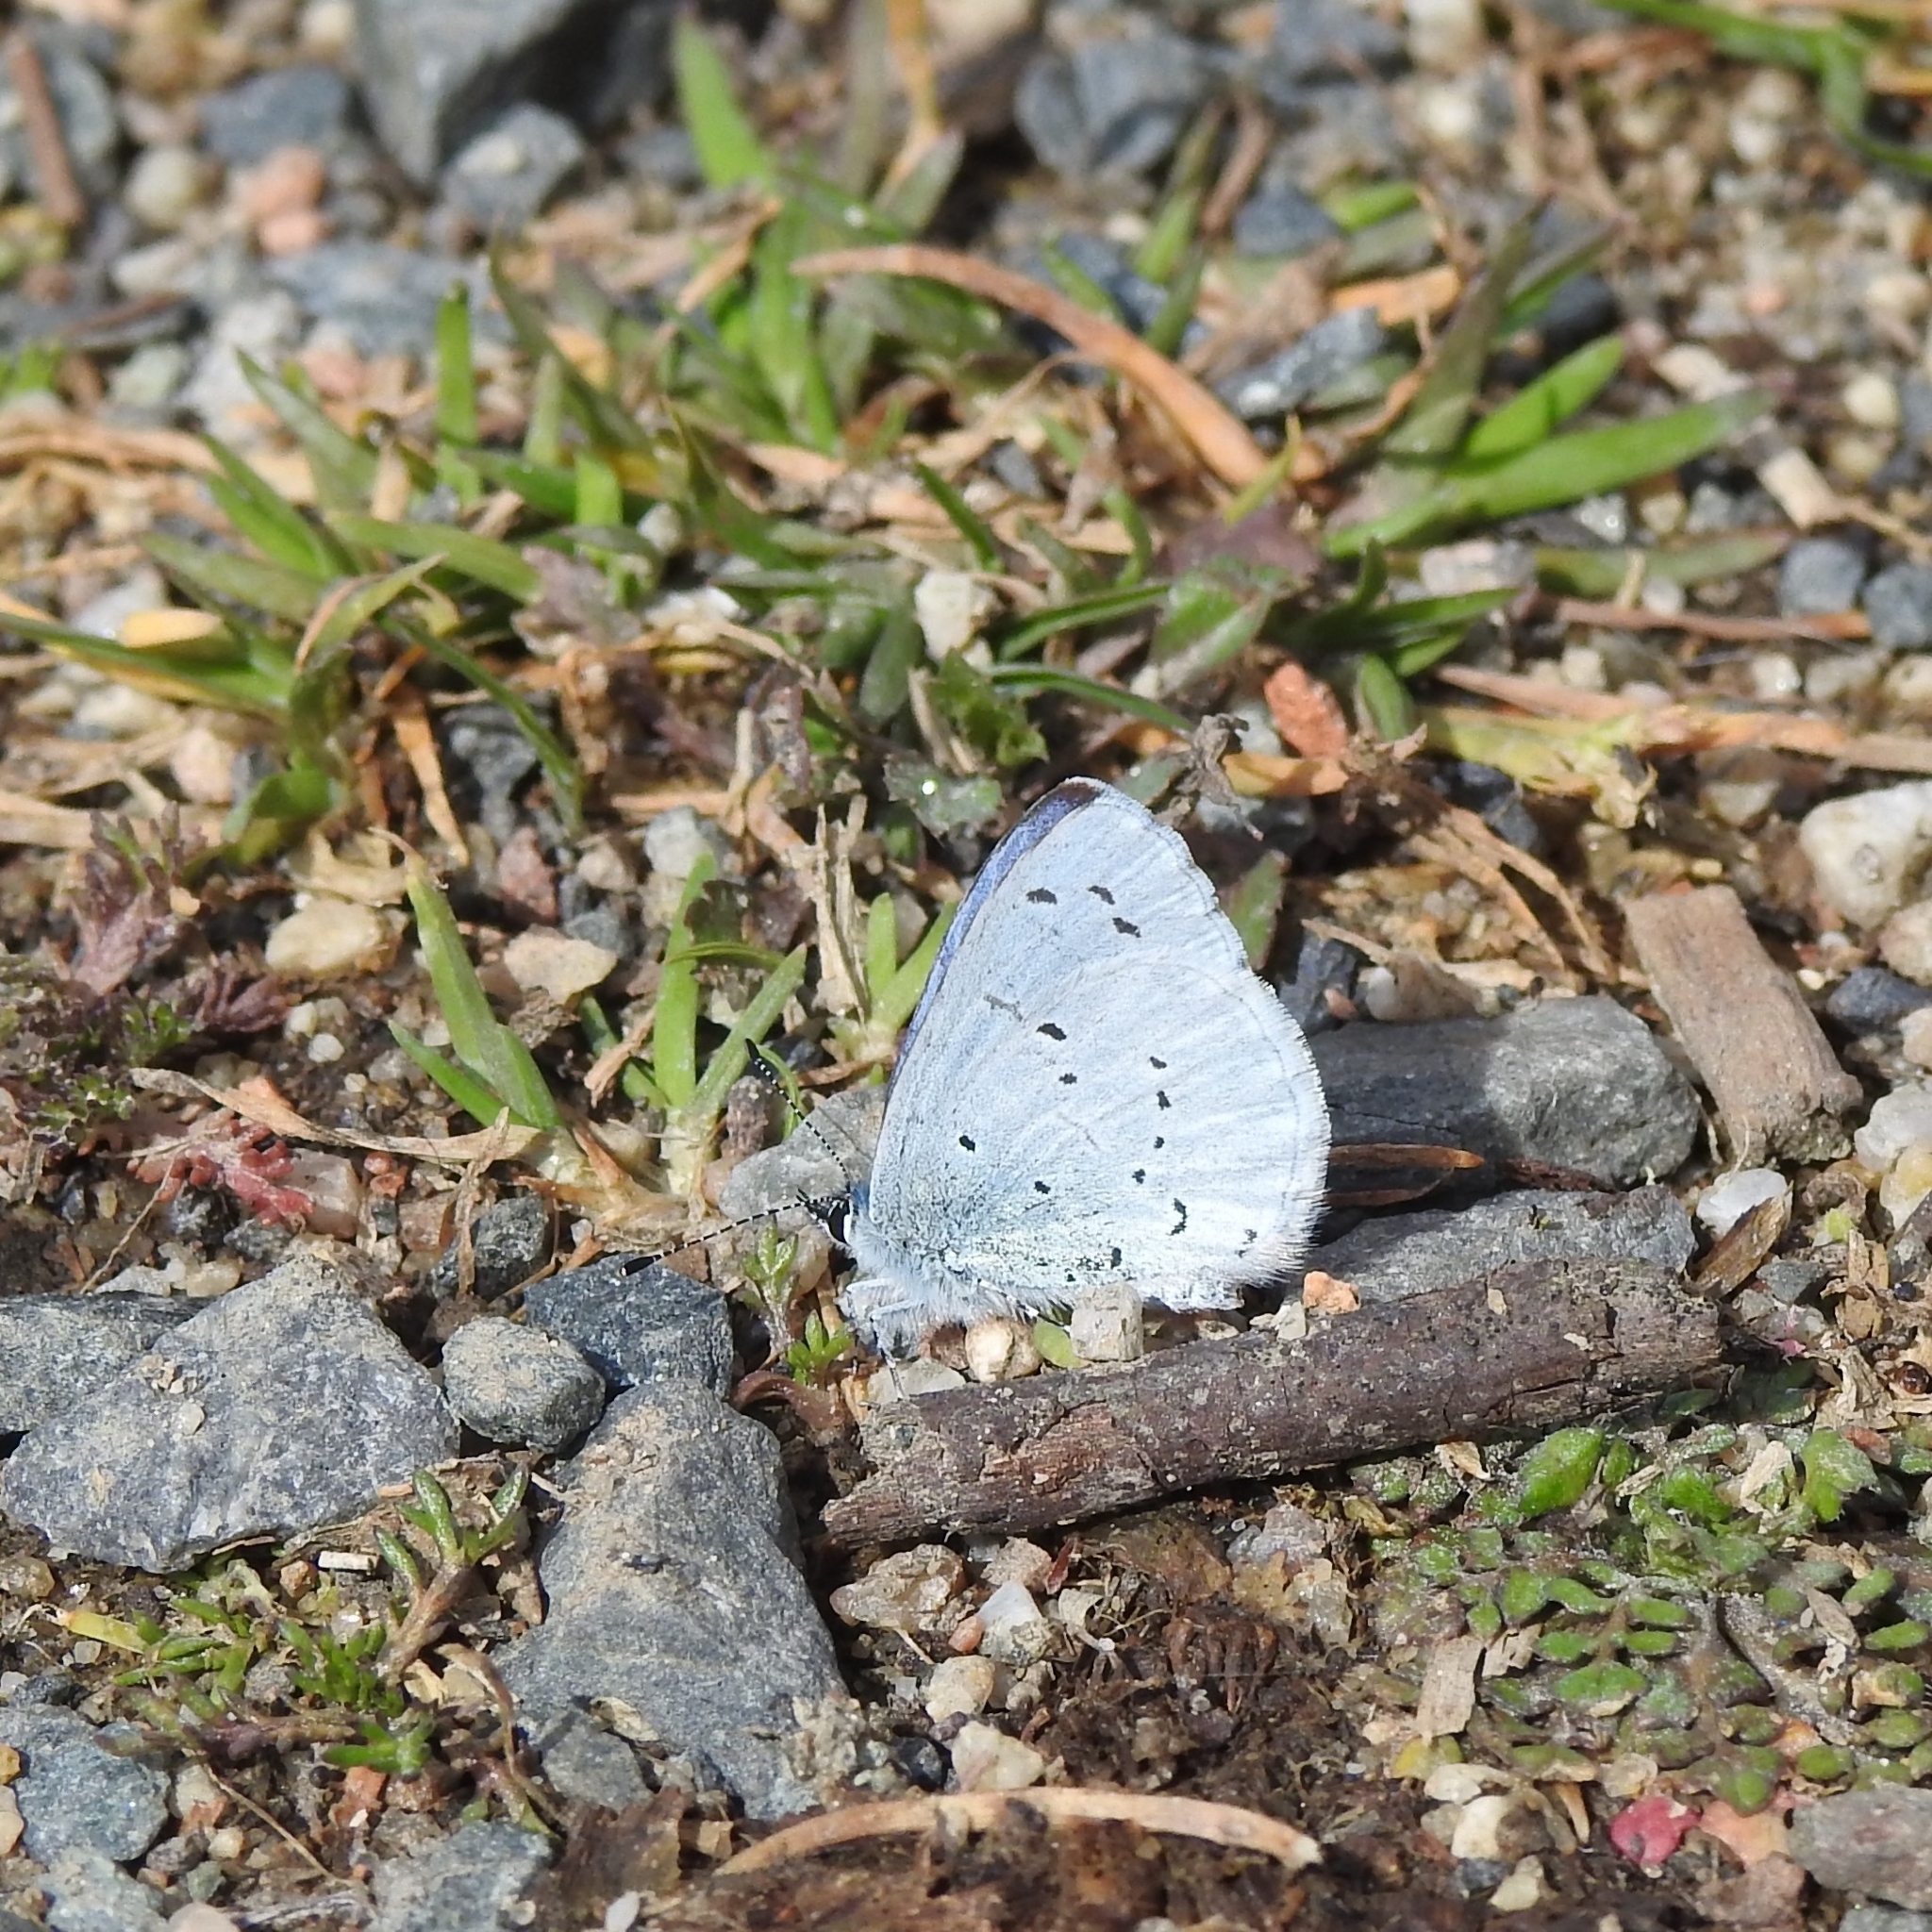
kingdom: Animalia
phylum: Arthropoda
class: Insecta
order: Lepidoptera
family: Lycaenidae
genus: Celastrina
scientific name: Celastrina argiolus
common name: Holly blue
